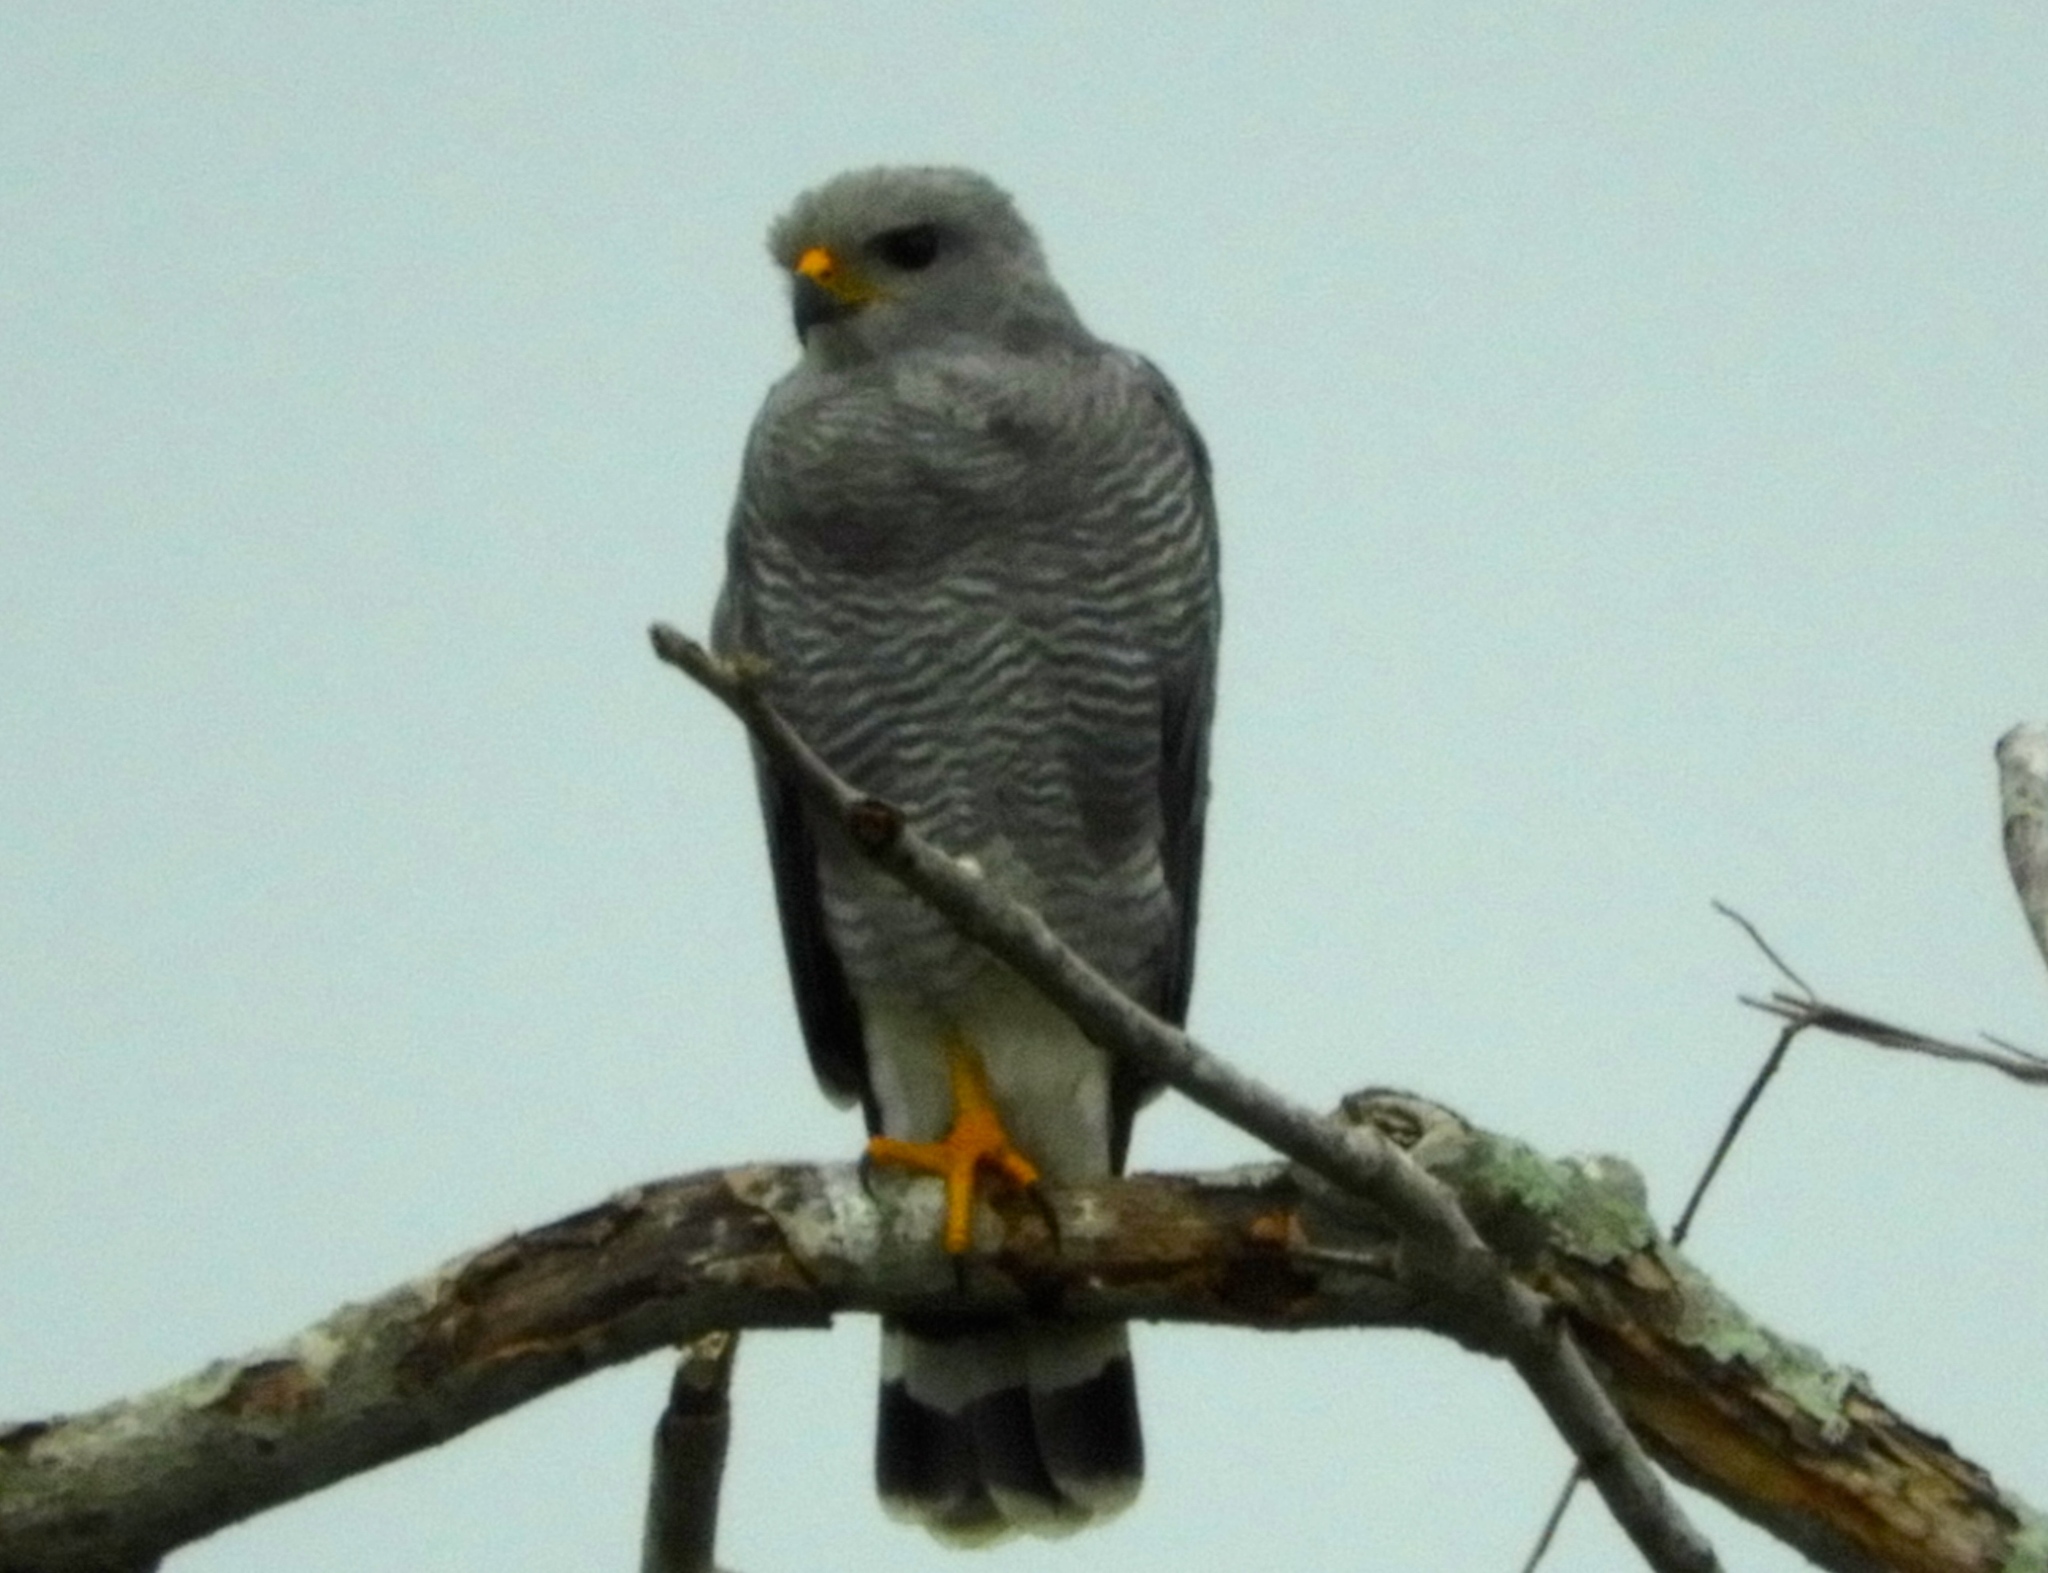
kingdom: Animalia
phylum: Chordata
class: Aves
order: Accipitriformes
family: Accipitridae
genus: Buteo
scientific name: Buteo nitidus
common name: Grey-lined hawk
